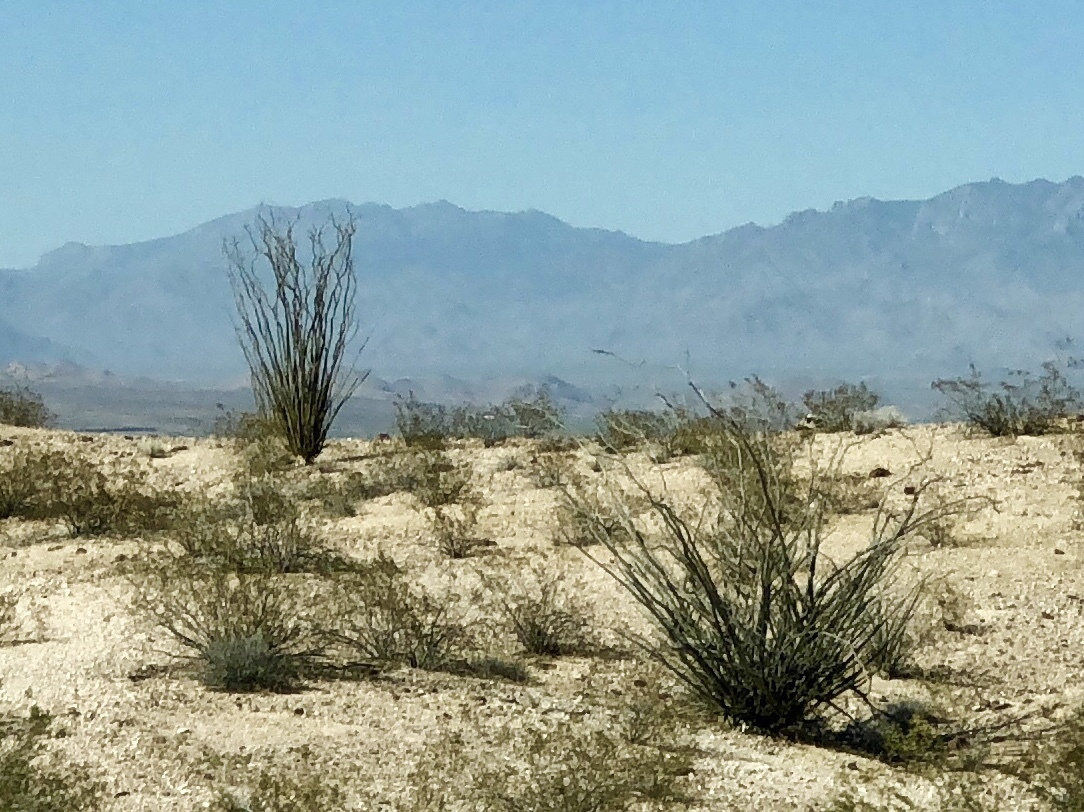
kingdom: Plantae
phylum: Tracheophyta
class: Magnoliopsida
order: Ericales
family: Fouquieriaceae
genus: Fouquieria
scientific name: Fouquieria splendens
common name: Vine-cactus
